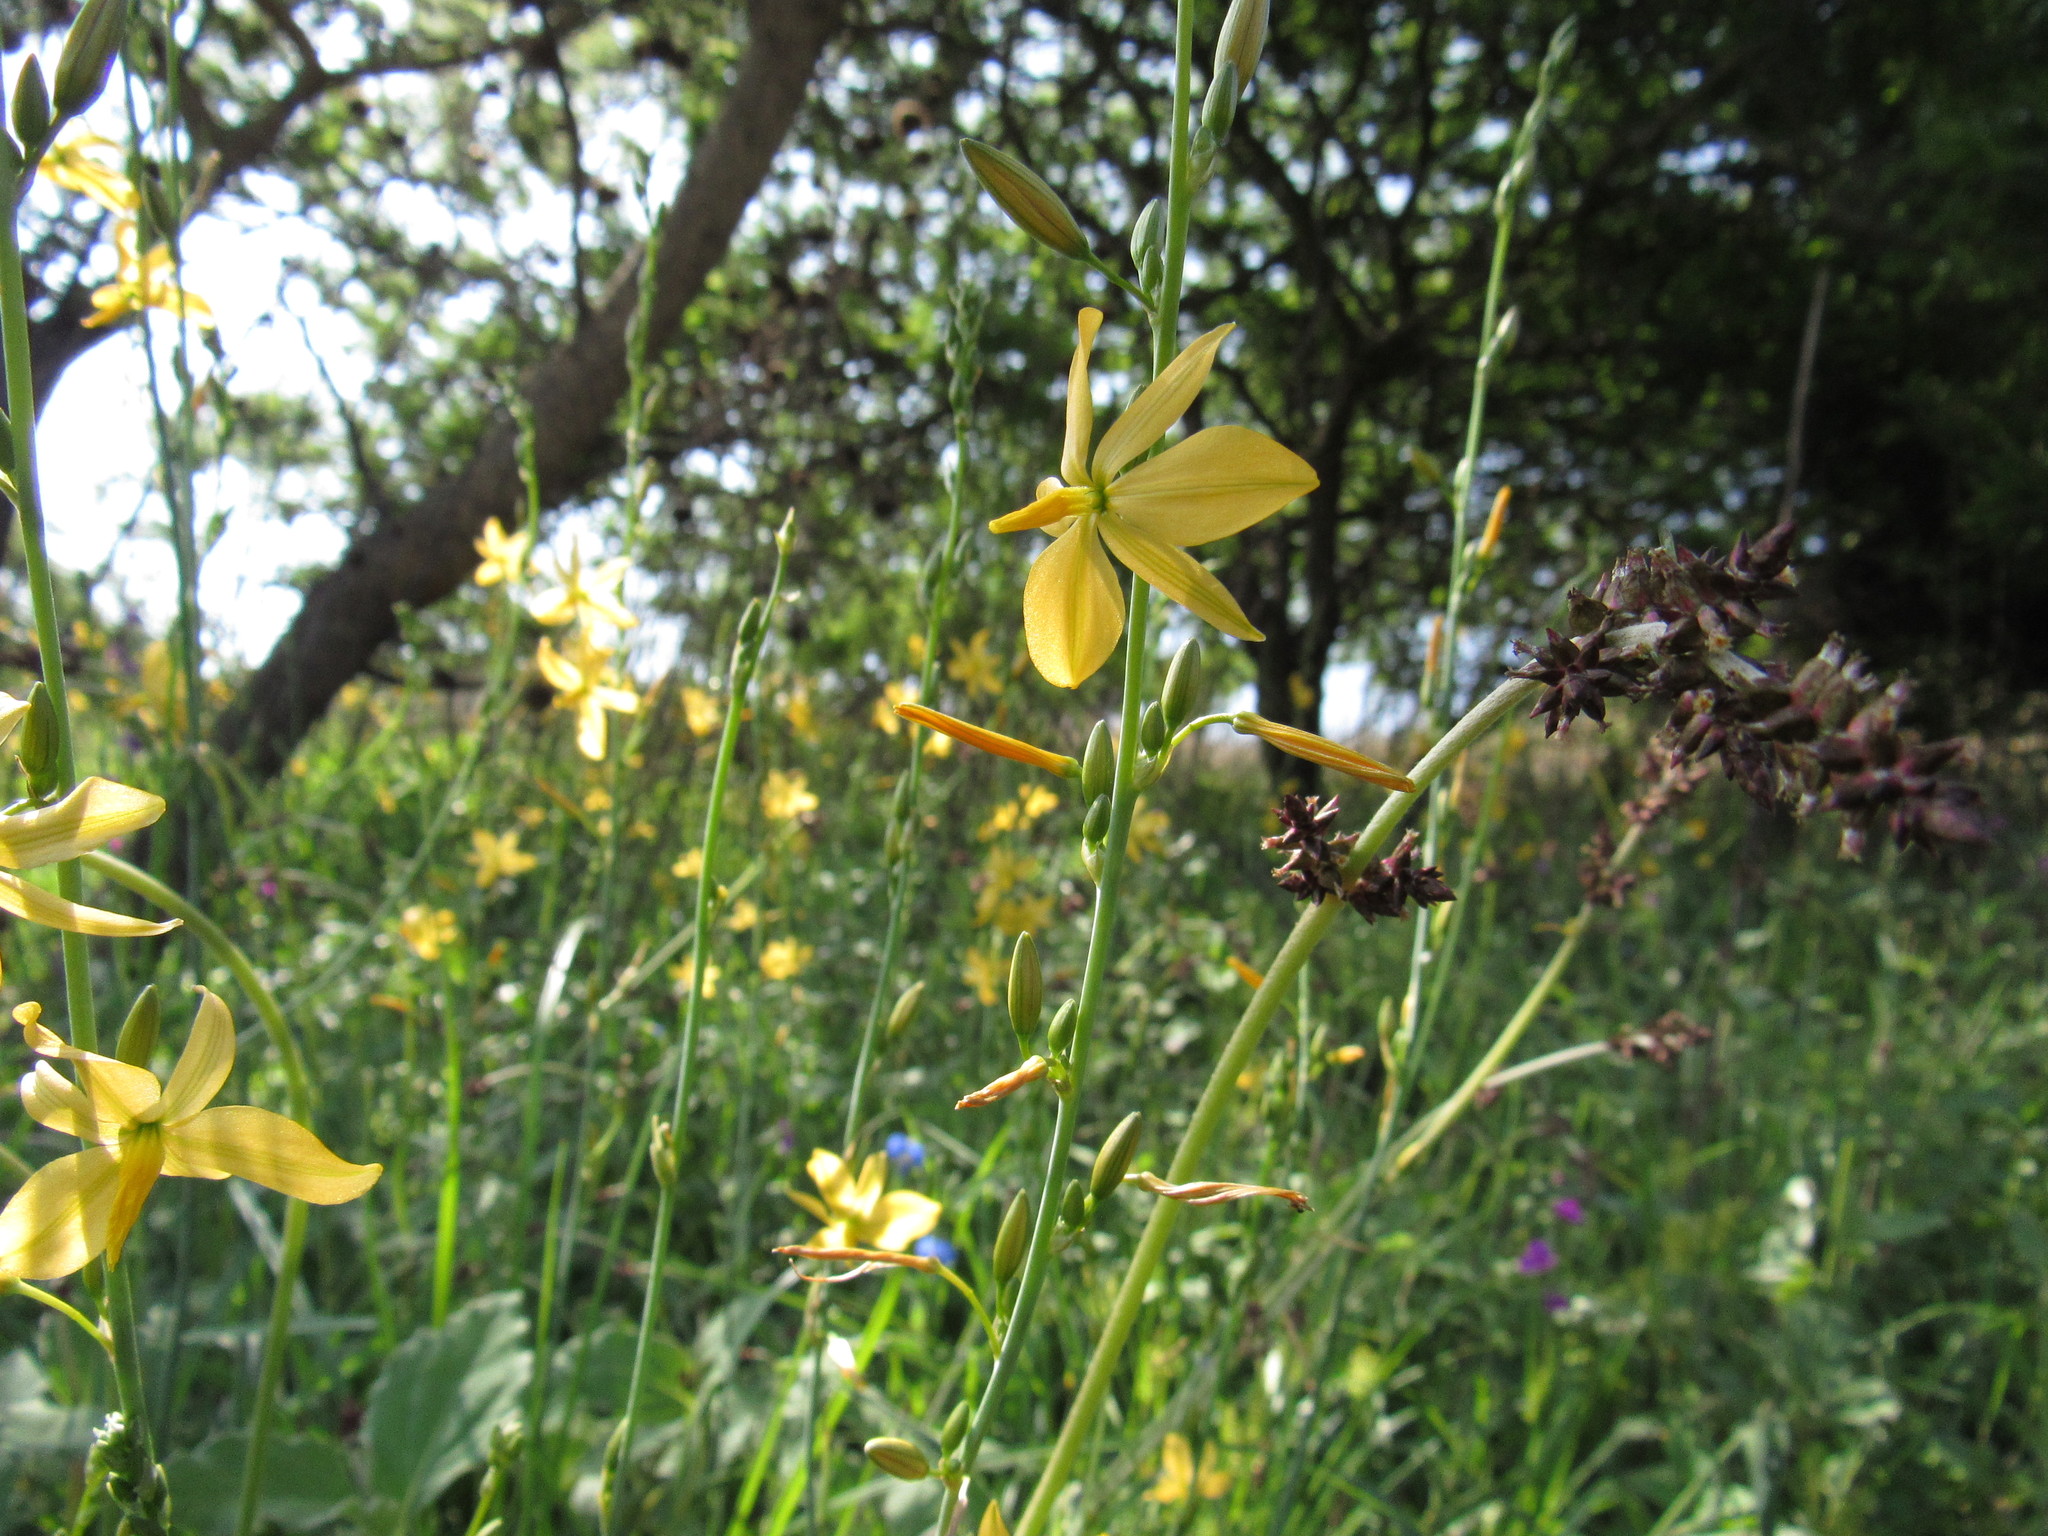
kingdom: Plantae
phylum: Tracheophyta
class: Liliopsida
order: Asparagales
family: Asparagaceae
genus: Echeandia
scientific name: Echeandia mexicana
